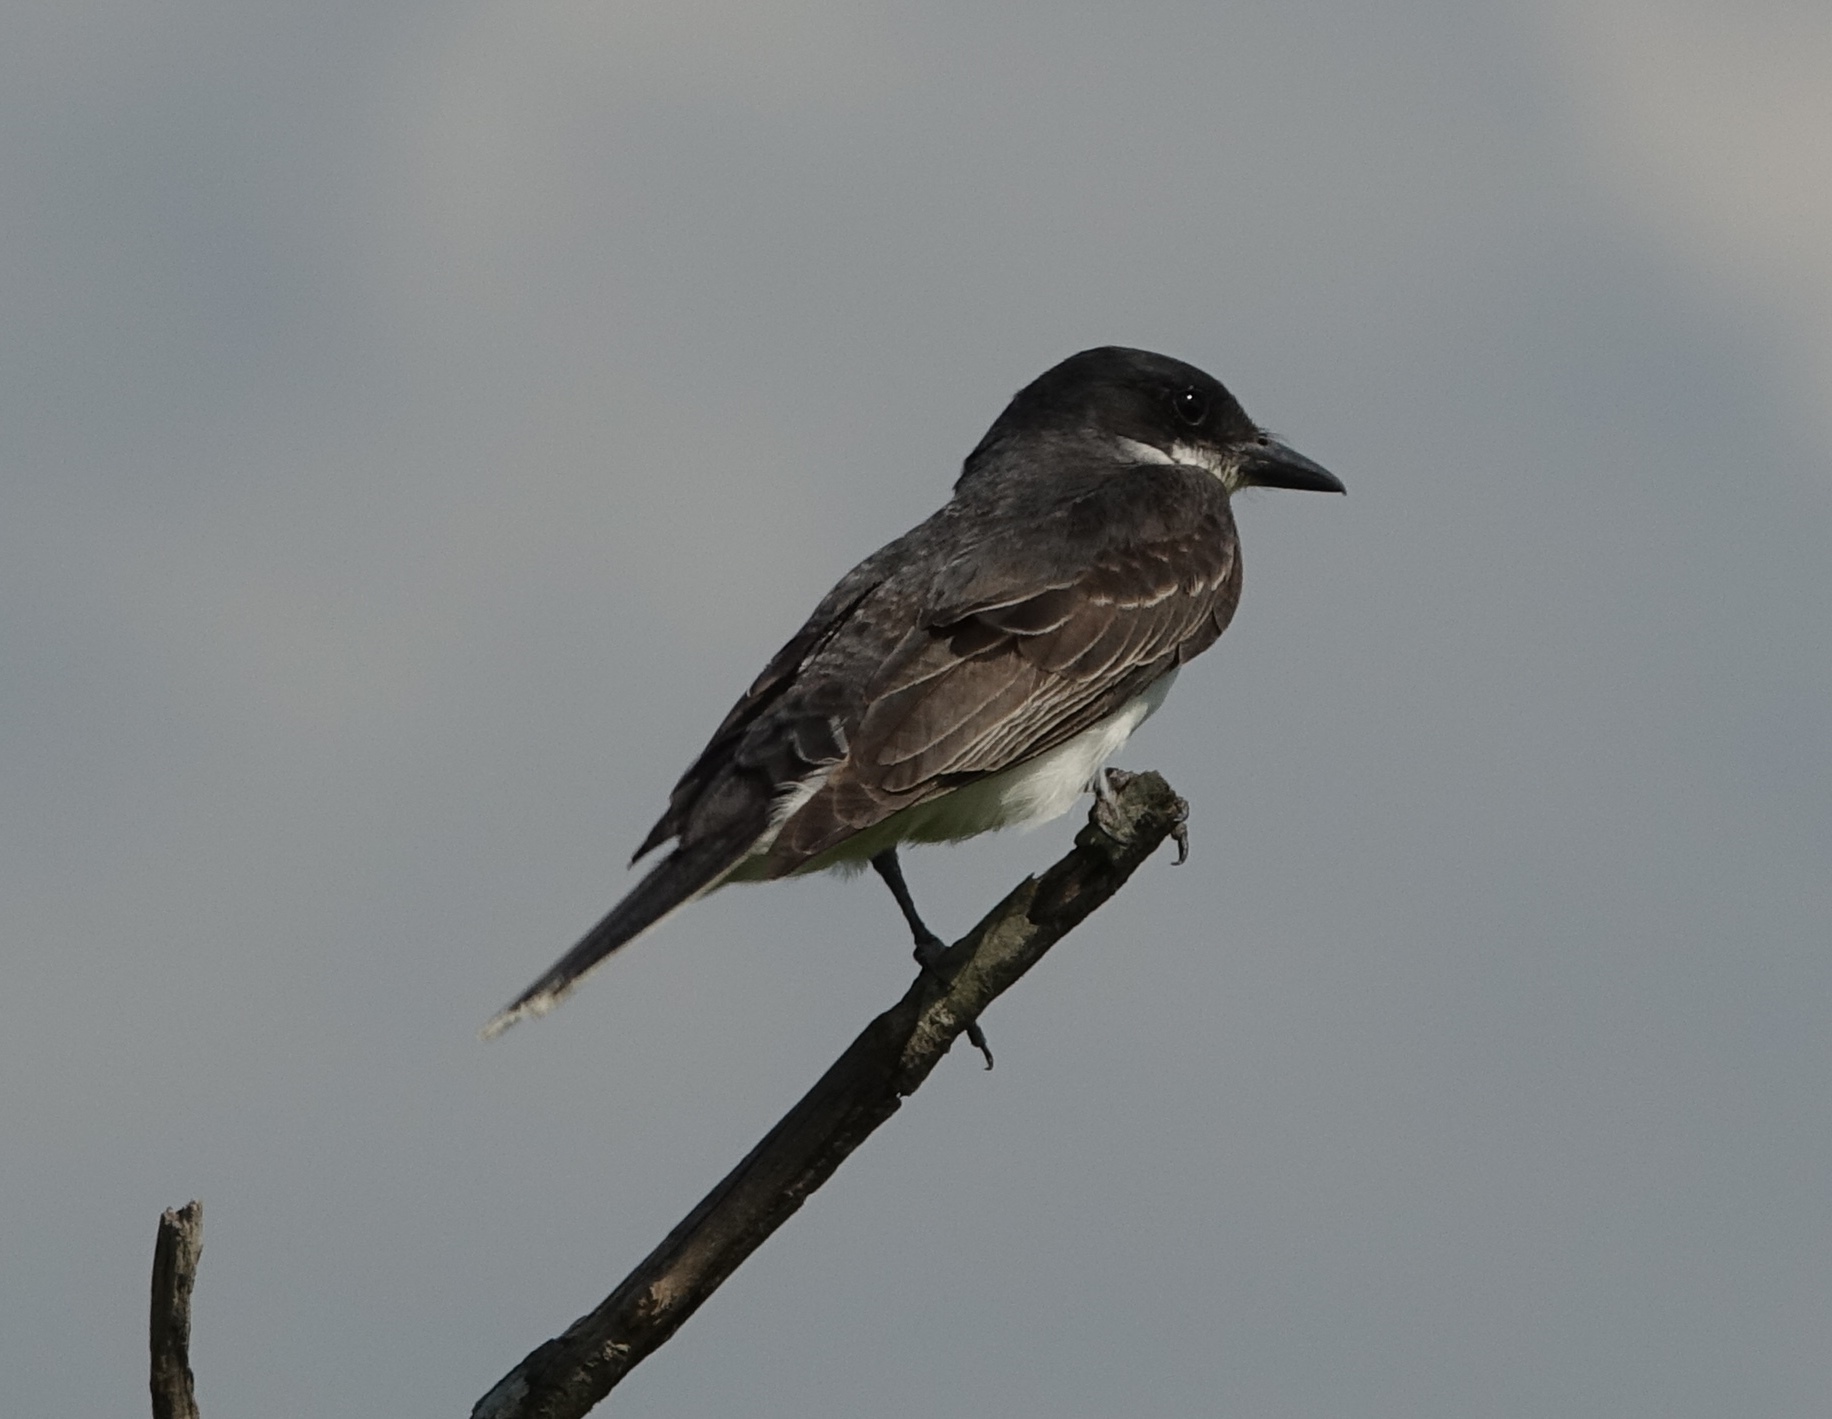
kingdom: Animalia
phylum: Chordata
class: Aves
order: Passeriformes
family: Tyrannidae
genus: Tyrannus
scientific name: Tyrannus tyrannus
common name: Eastern kingbird
